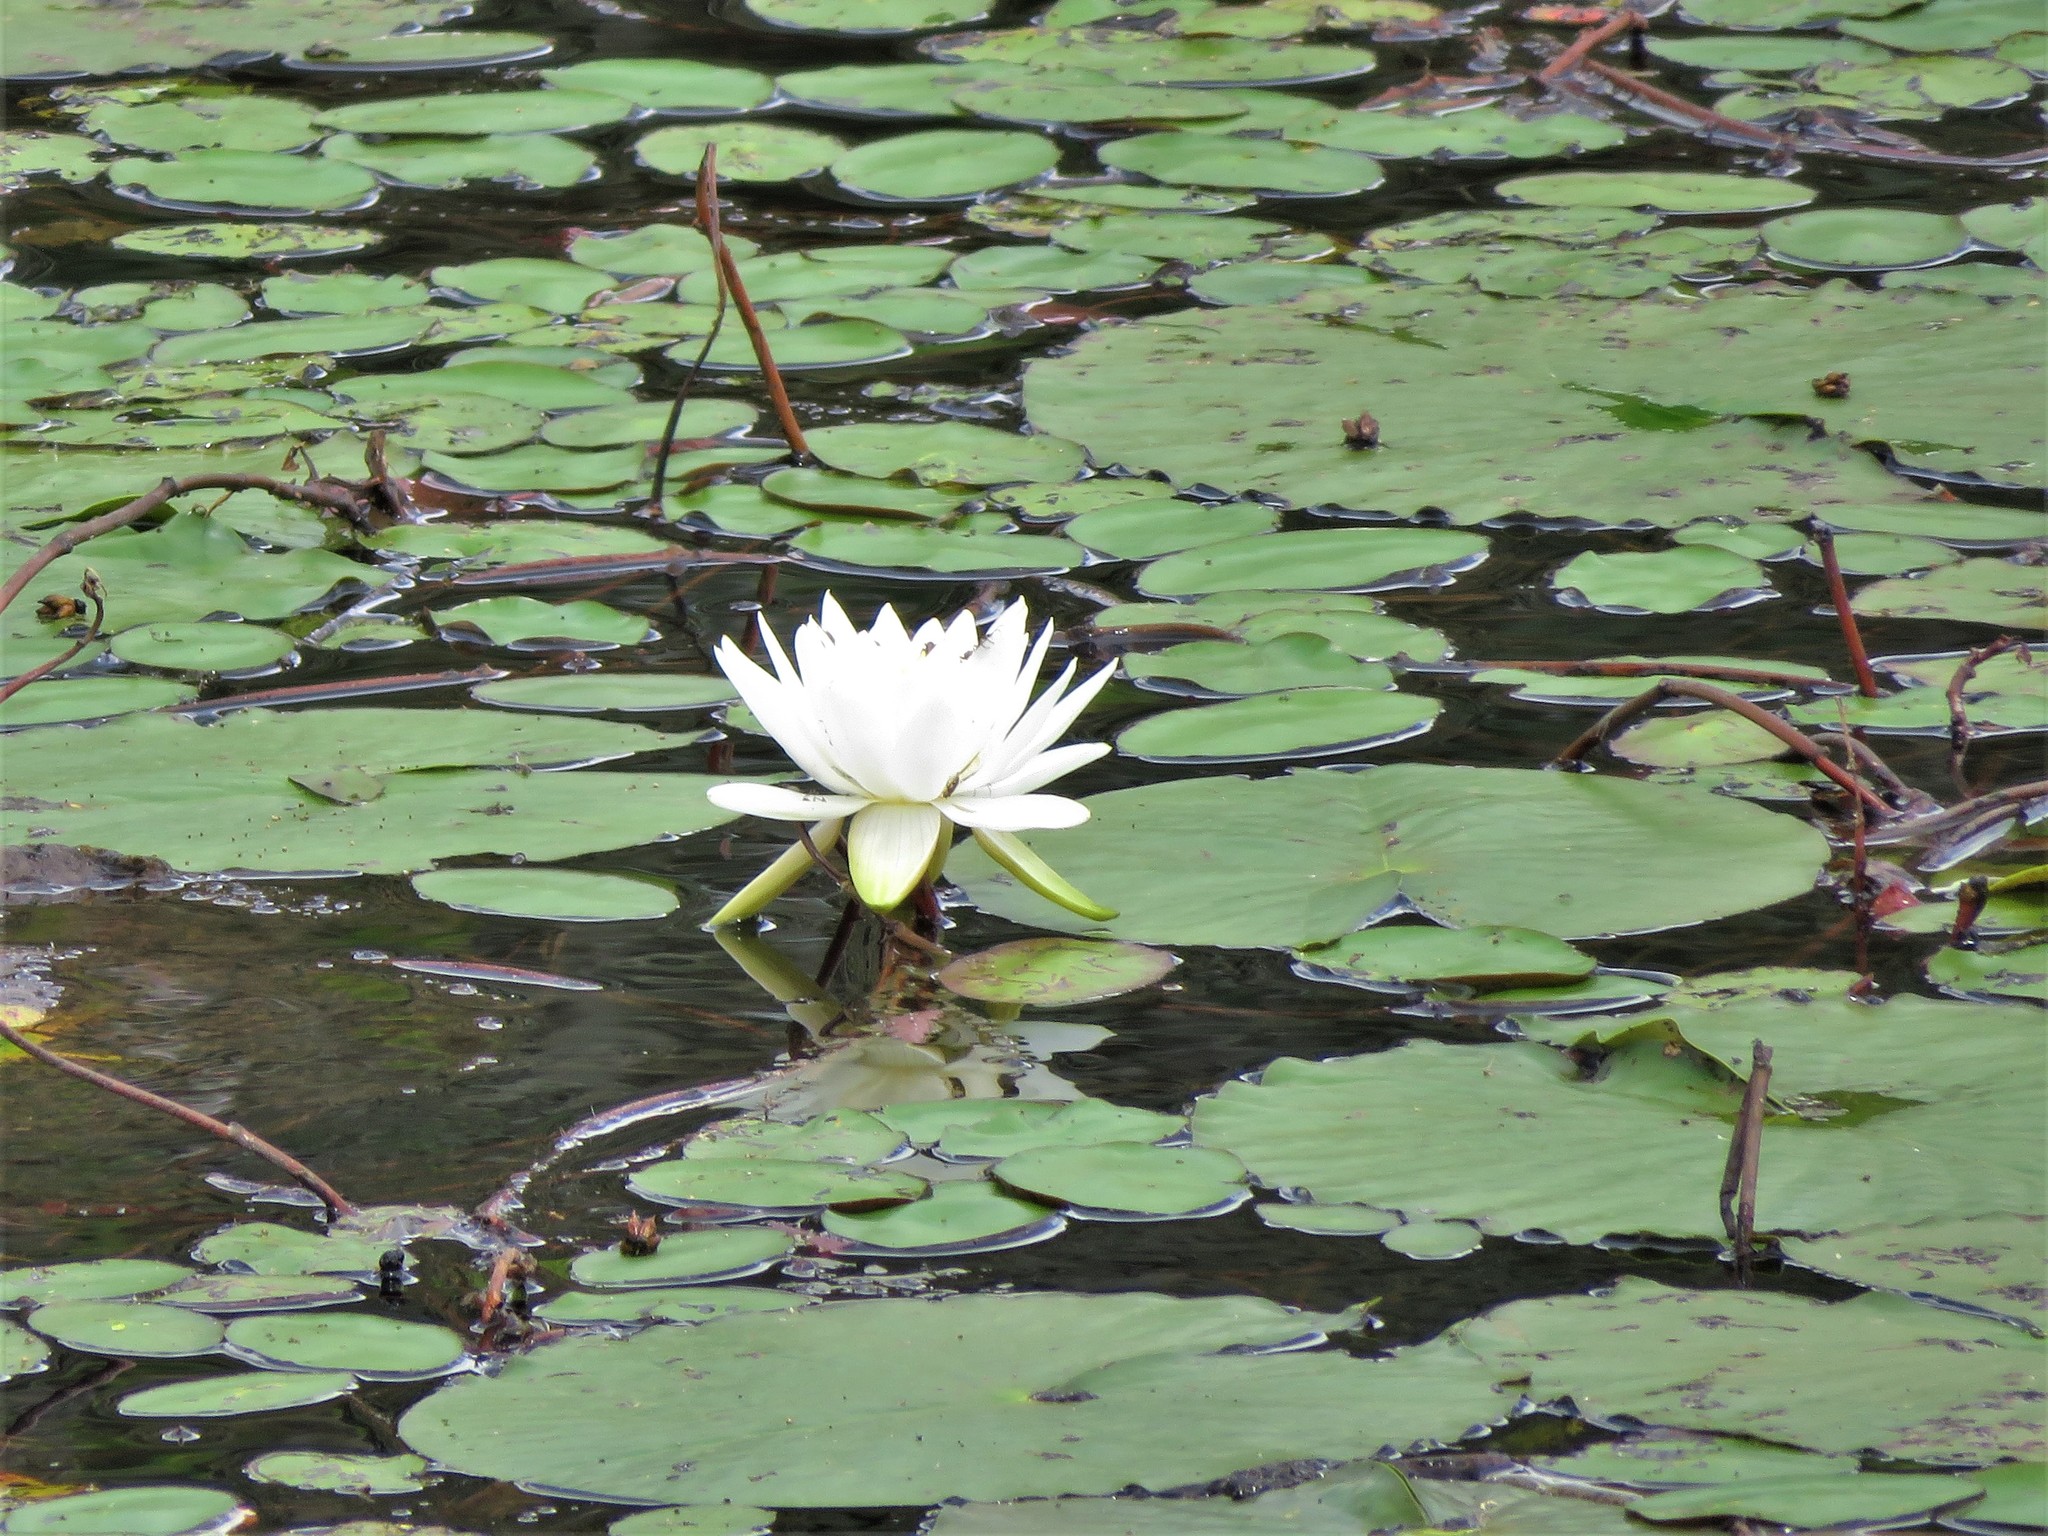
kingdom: Plantae
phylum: Tracheophyta
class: Magnoliopsida
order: Nymphaeales
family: Nymphaeaceae
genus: Nymphaea
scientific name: Nymphaea odorata
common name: Fragrant water-lily
